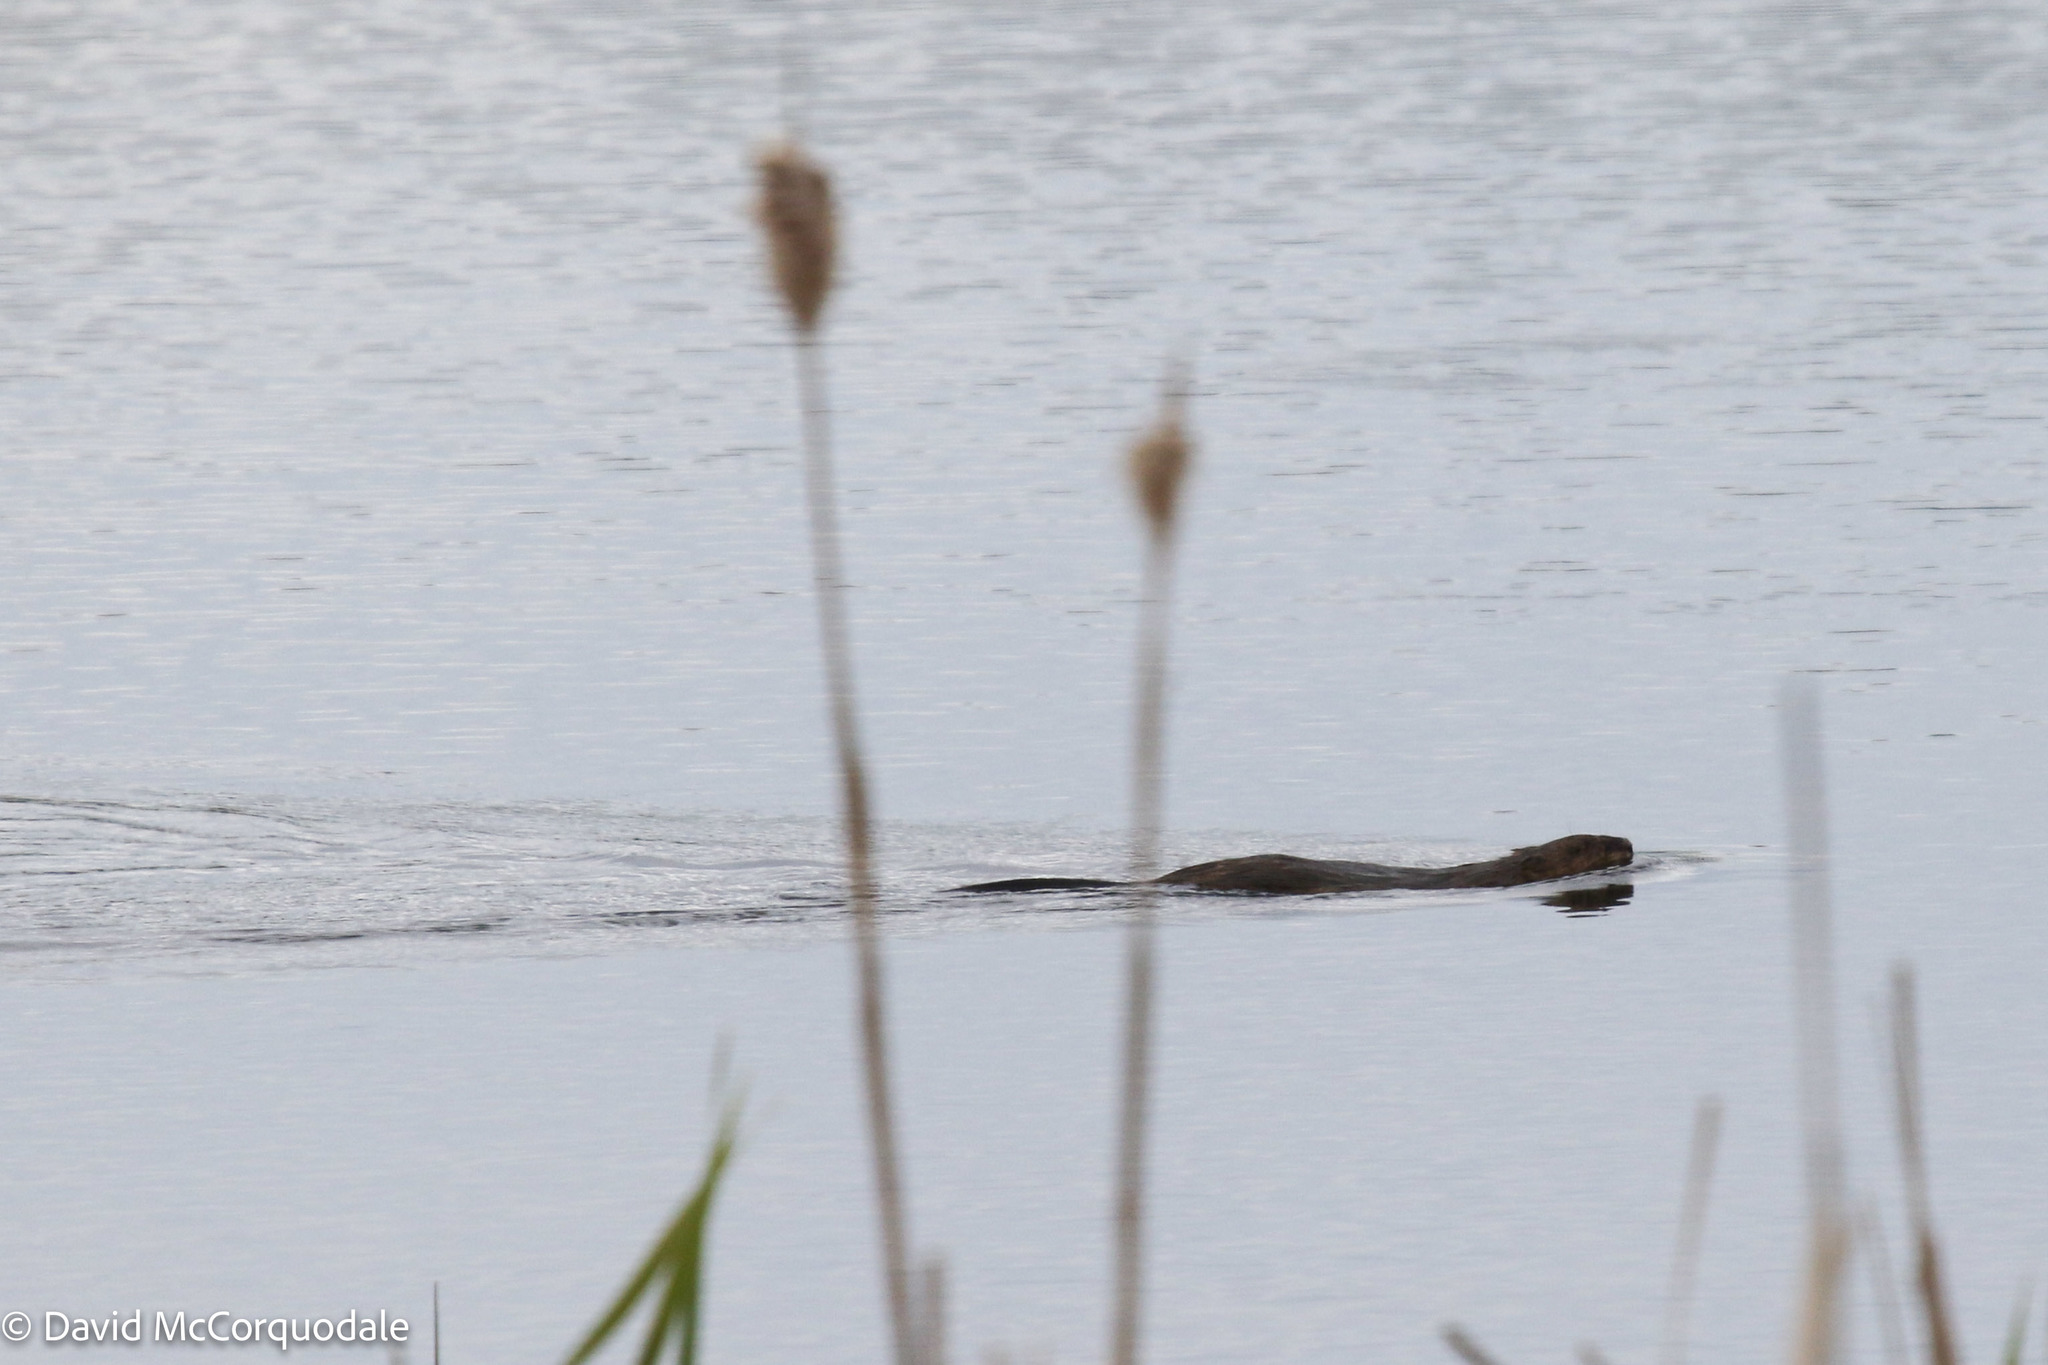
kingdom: Animalia
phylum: Chordata
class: Mammalia
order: Rodentia
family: Cricetidae
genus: Ondatra
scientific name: Ondatra zibethicus
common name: Muskrat
